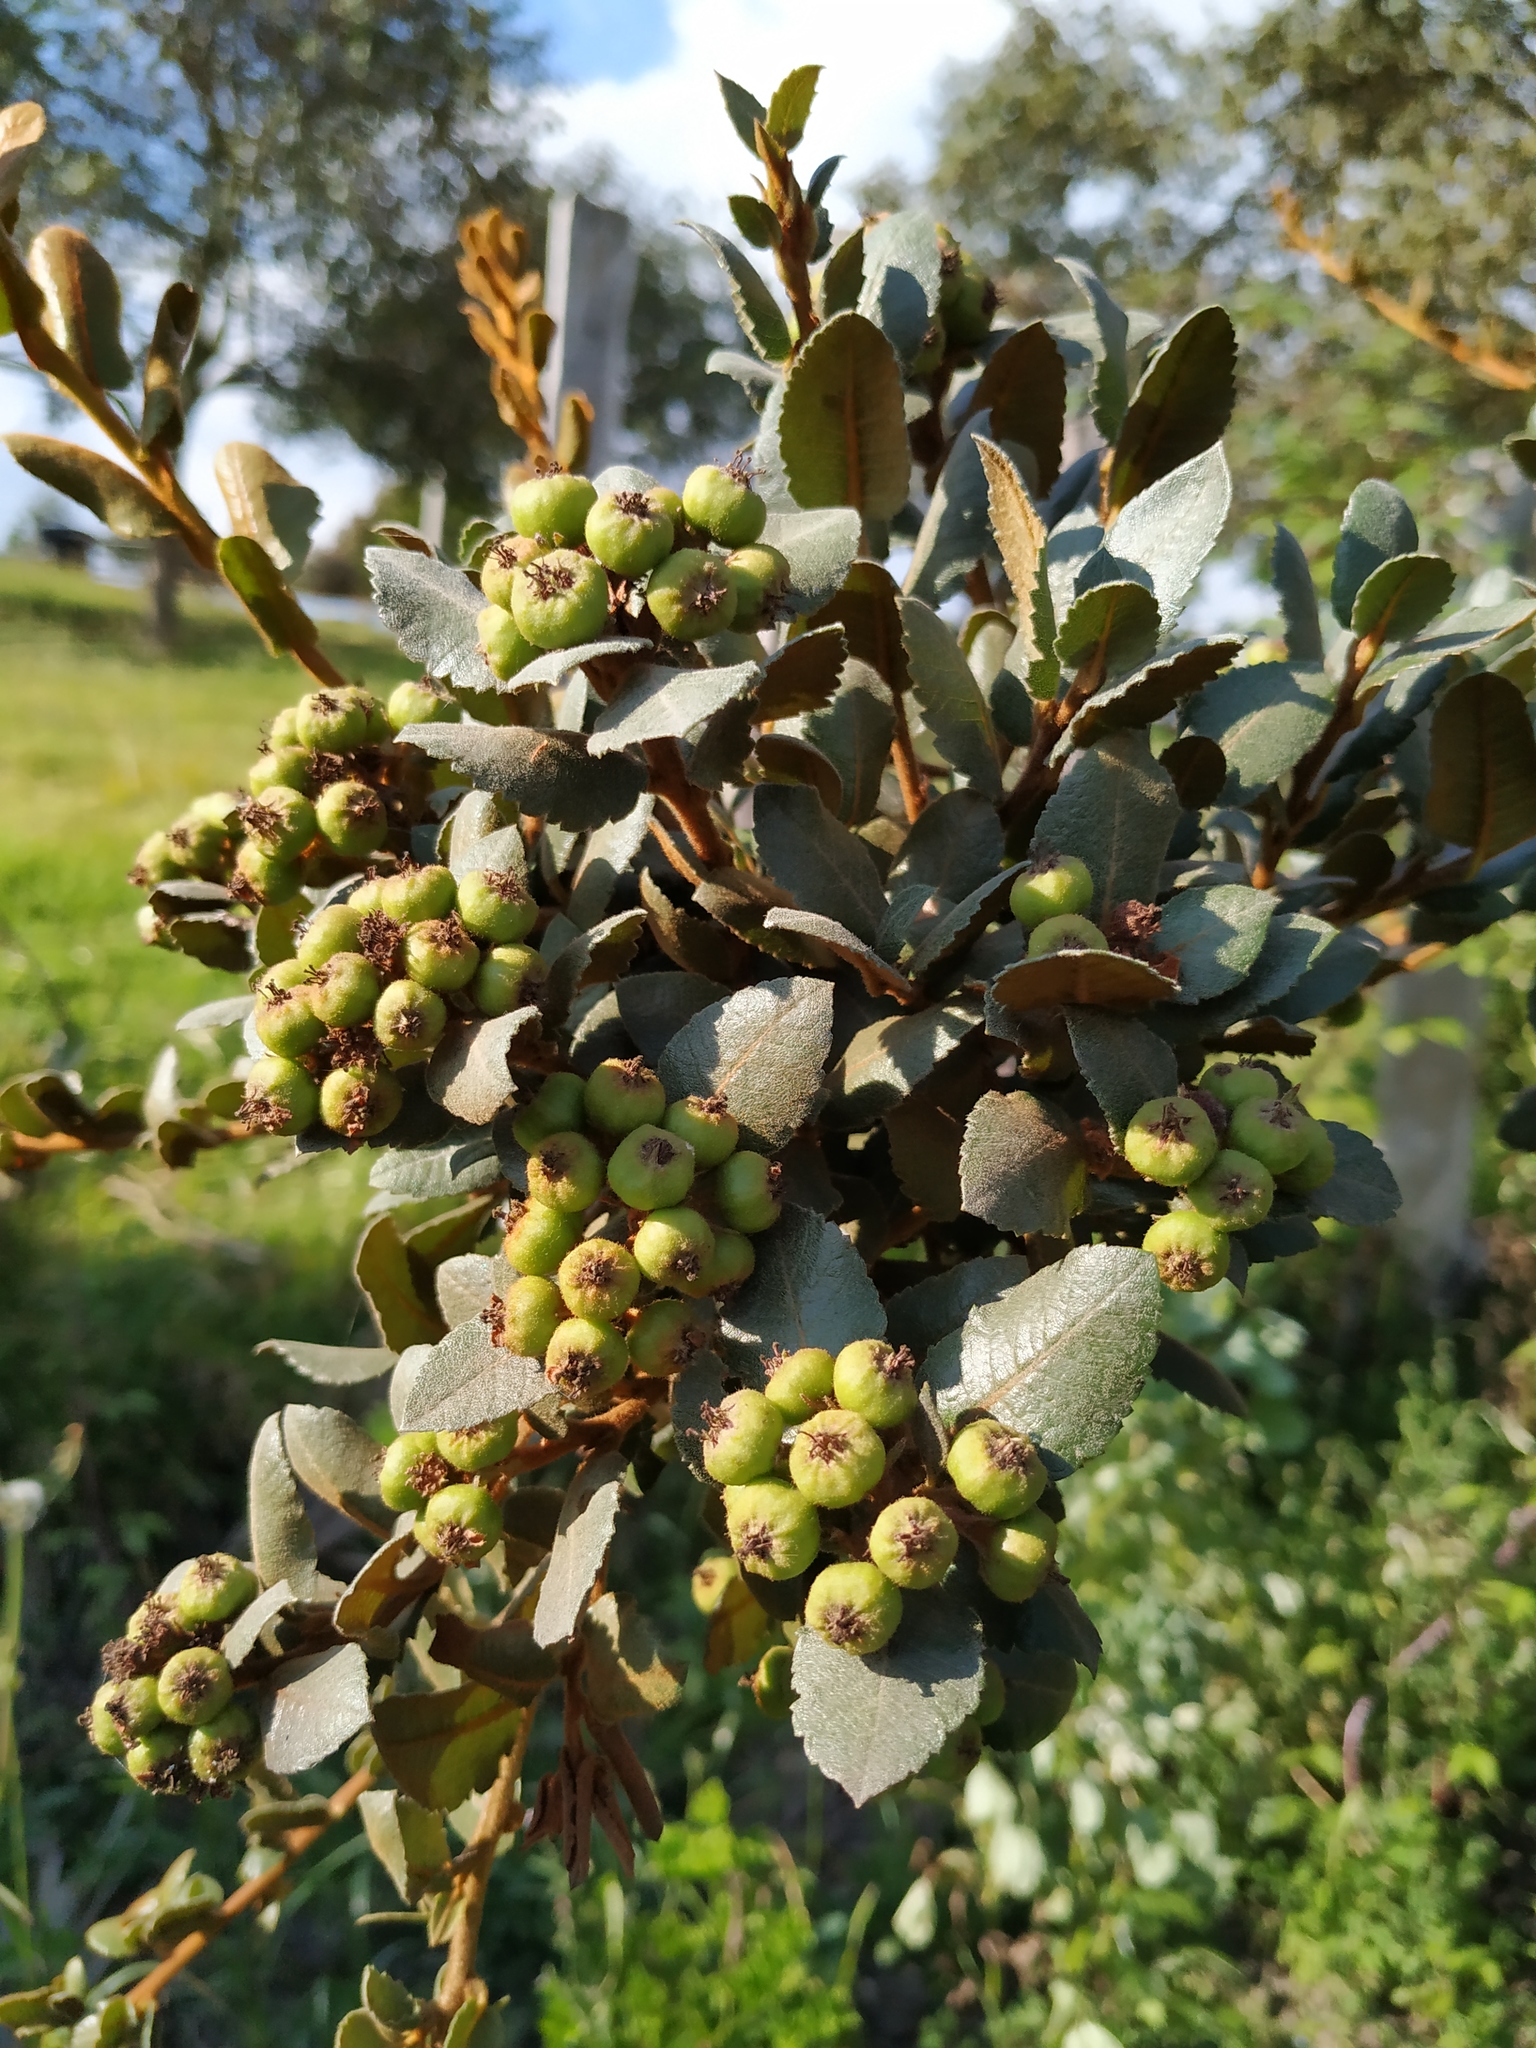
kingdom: Plantae
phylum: Tracheophyta
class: Magnoliopsida
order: Rosales
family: Rosaceae
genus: Hesperomeles
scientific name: Hesperomeles goudotiana
